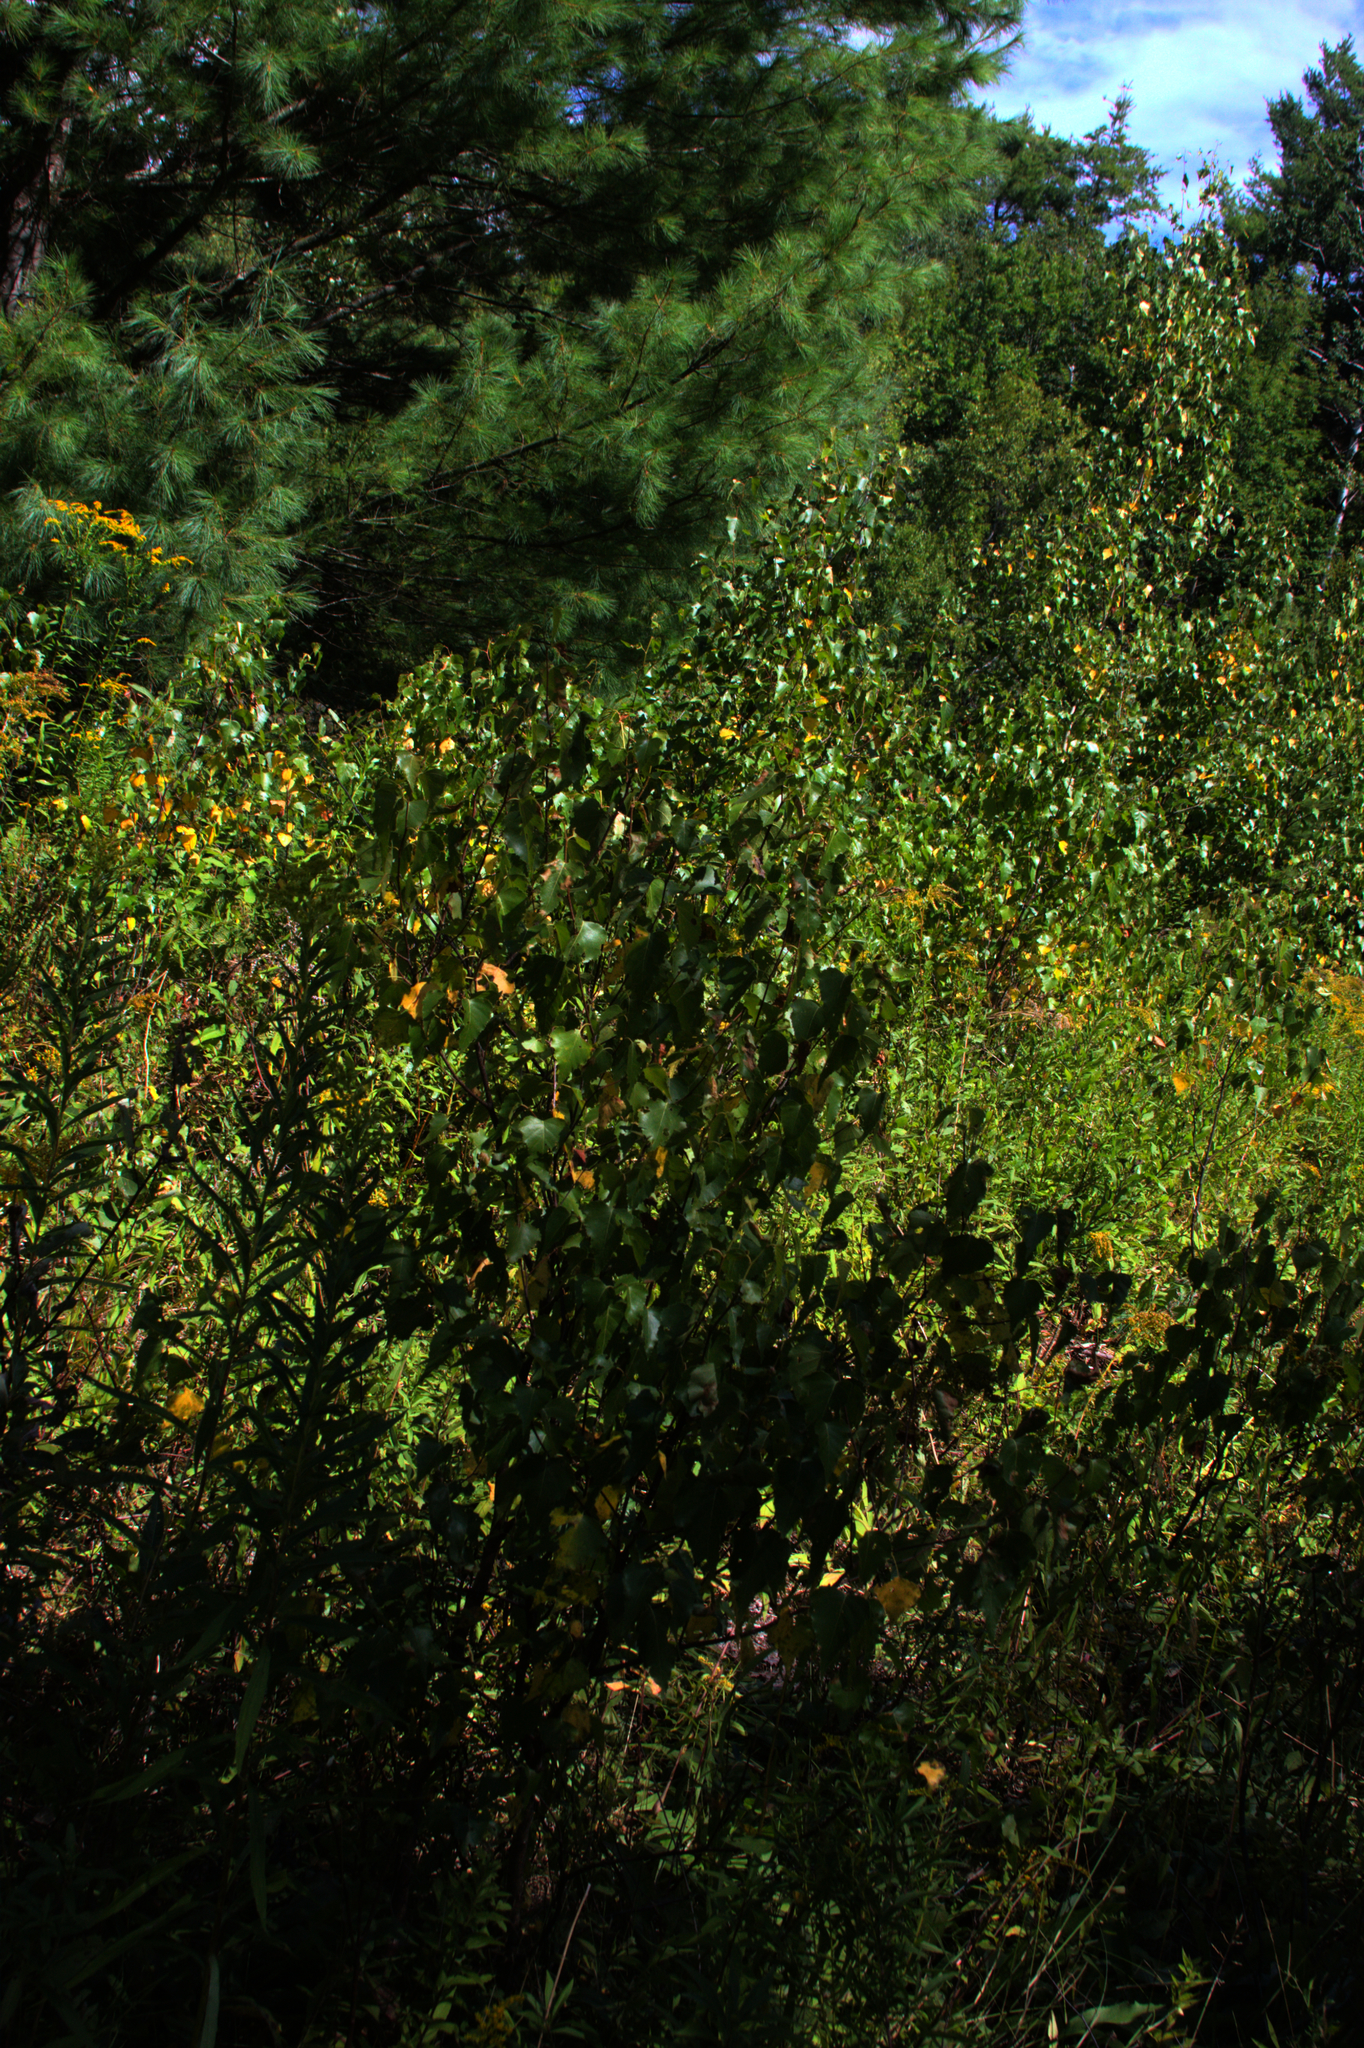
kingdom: Plantae
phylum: Tracheophyta
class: Magnoliopsida
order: Fagales
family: Betulaceae
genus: Betula
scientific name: Betula populifolia
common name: Fire birch
